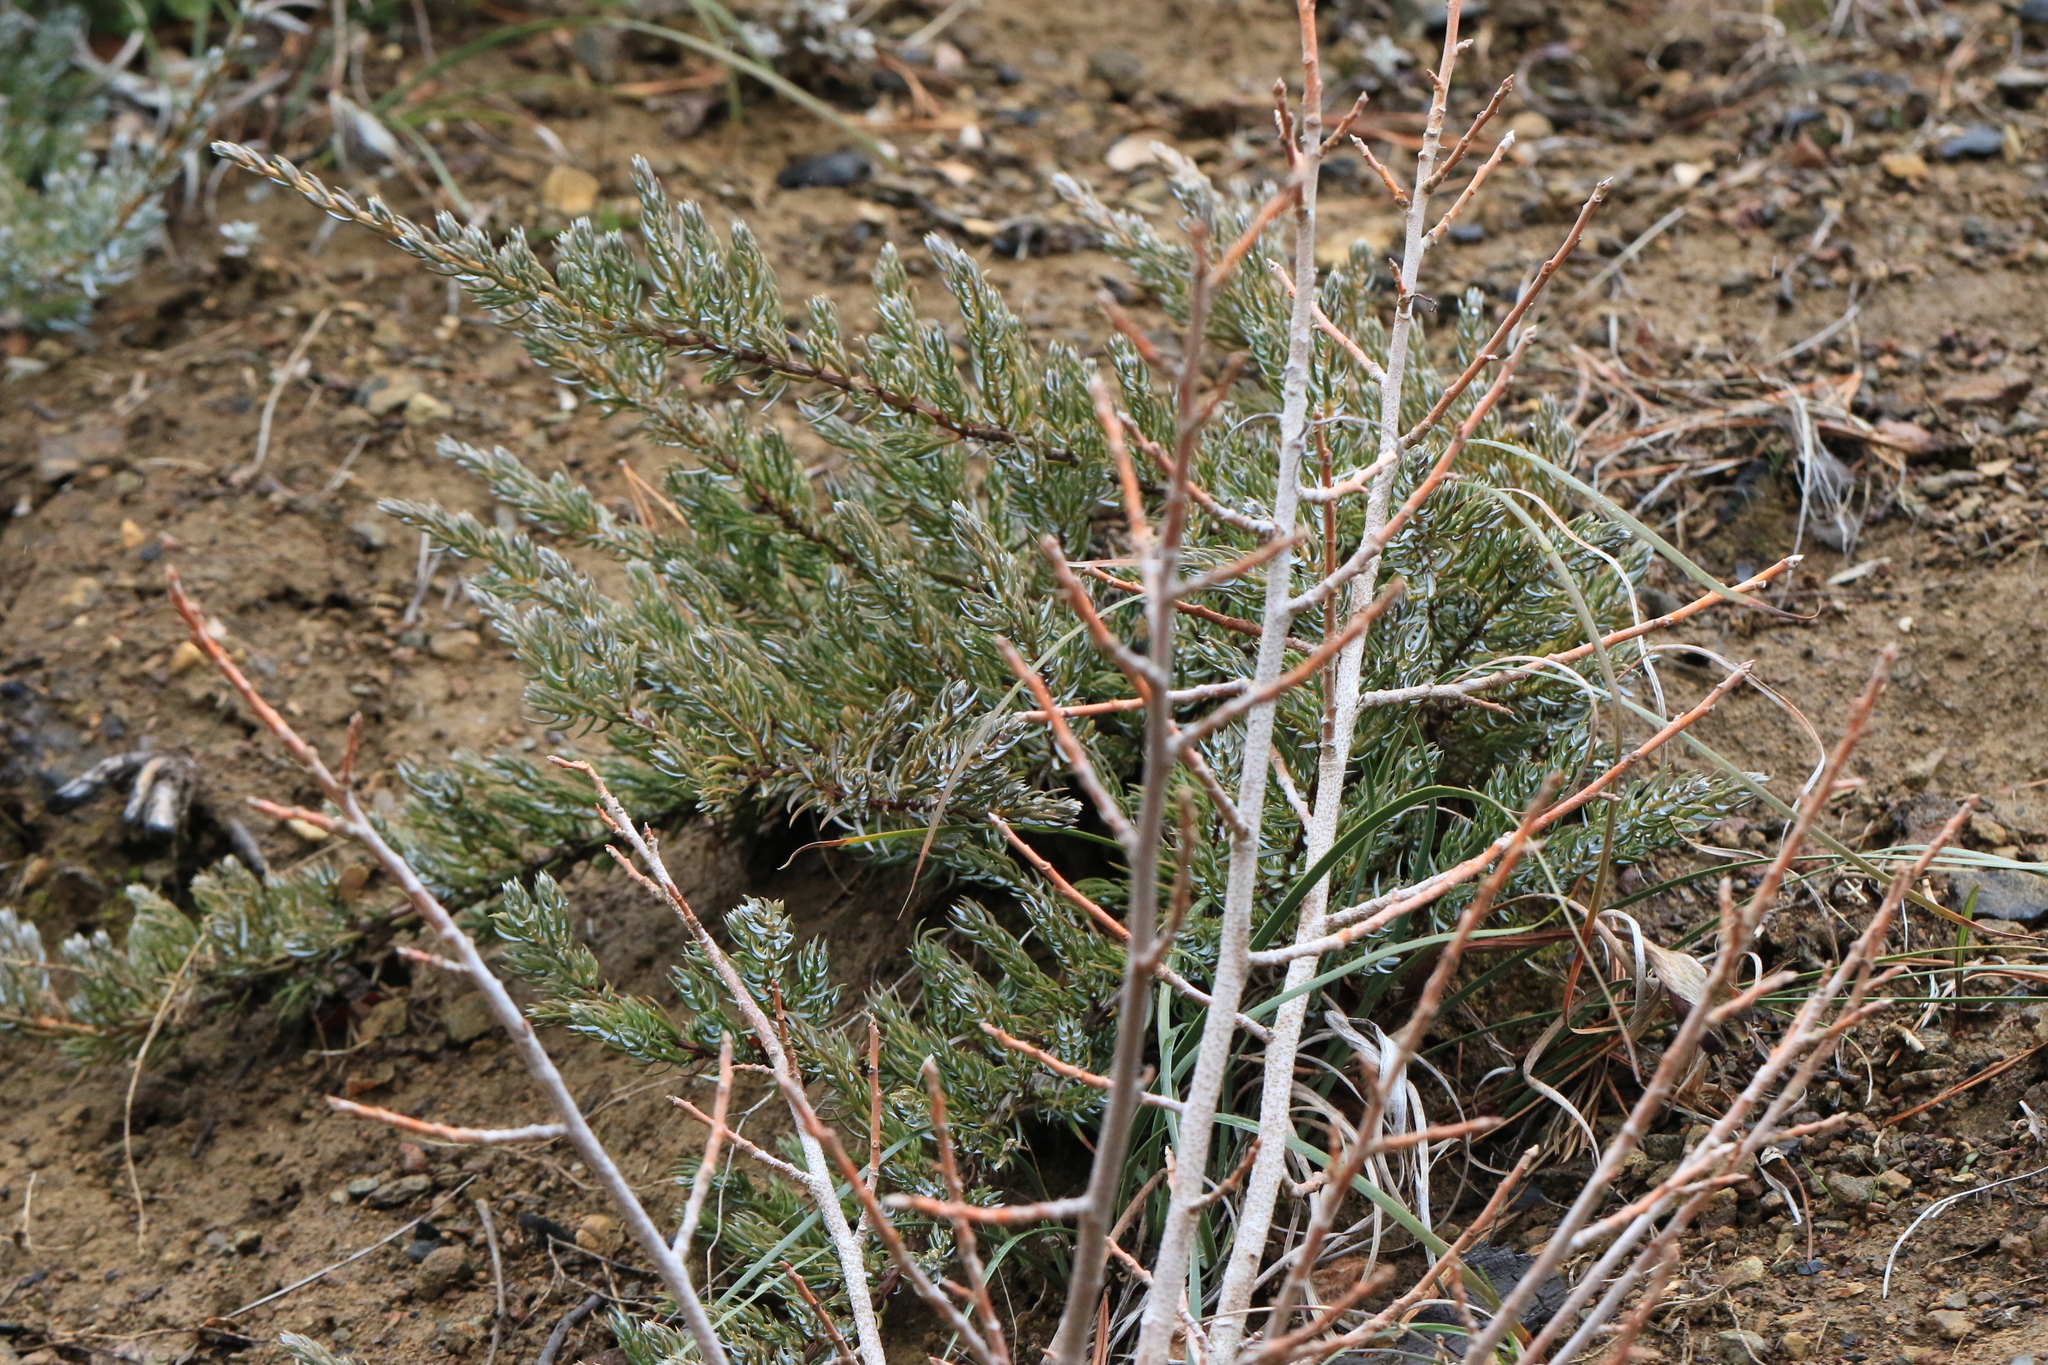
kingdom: Plantae
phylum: Tracheophyta
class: Pinopsida
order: Pinales
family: Cupressaceae
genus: Juniperus
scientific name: Juniperus communis
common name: Common juniper
